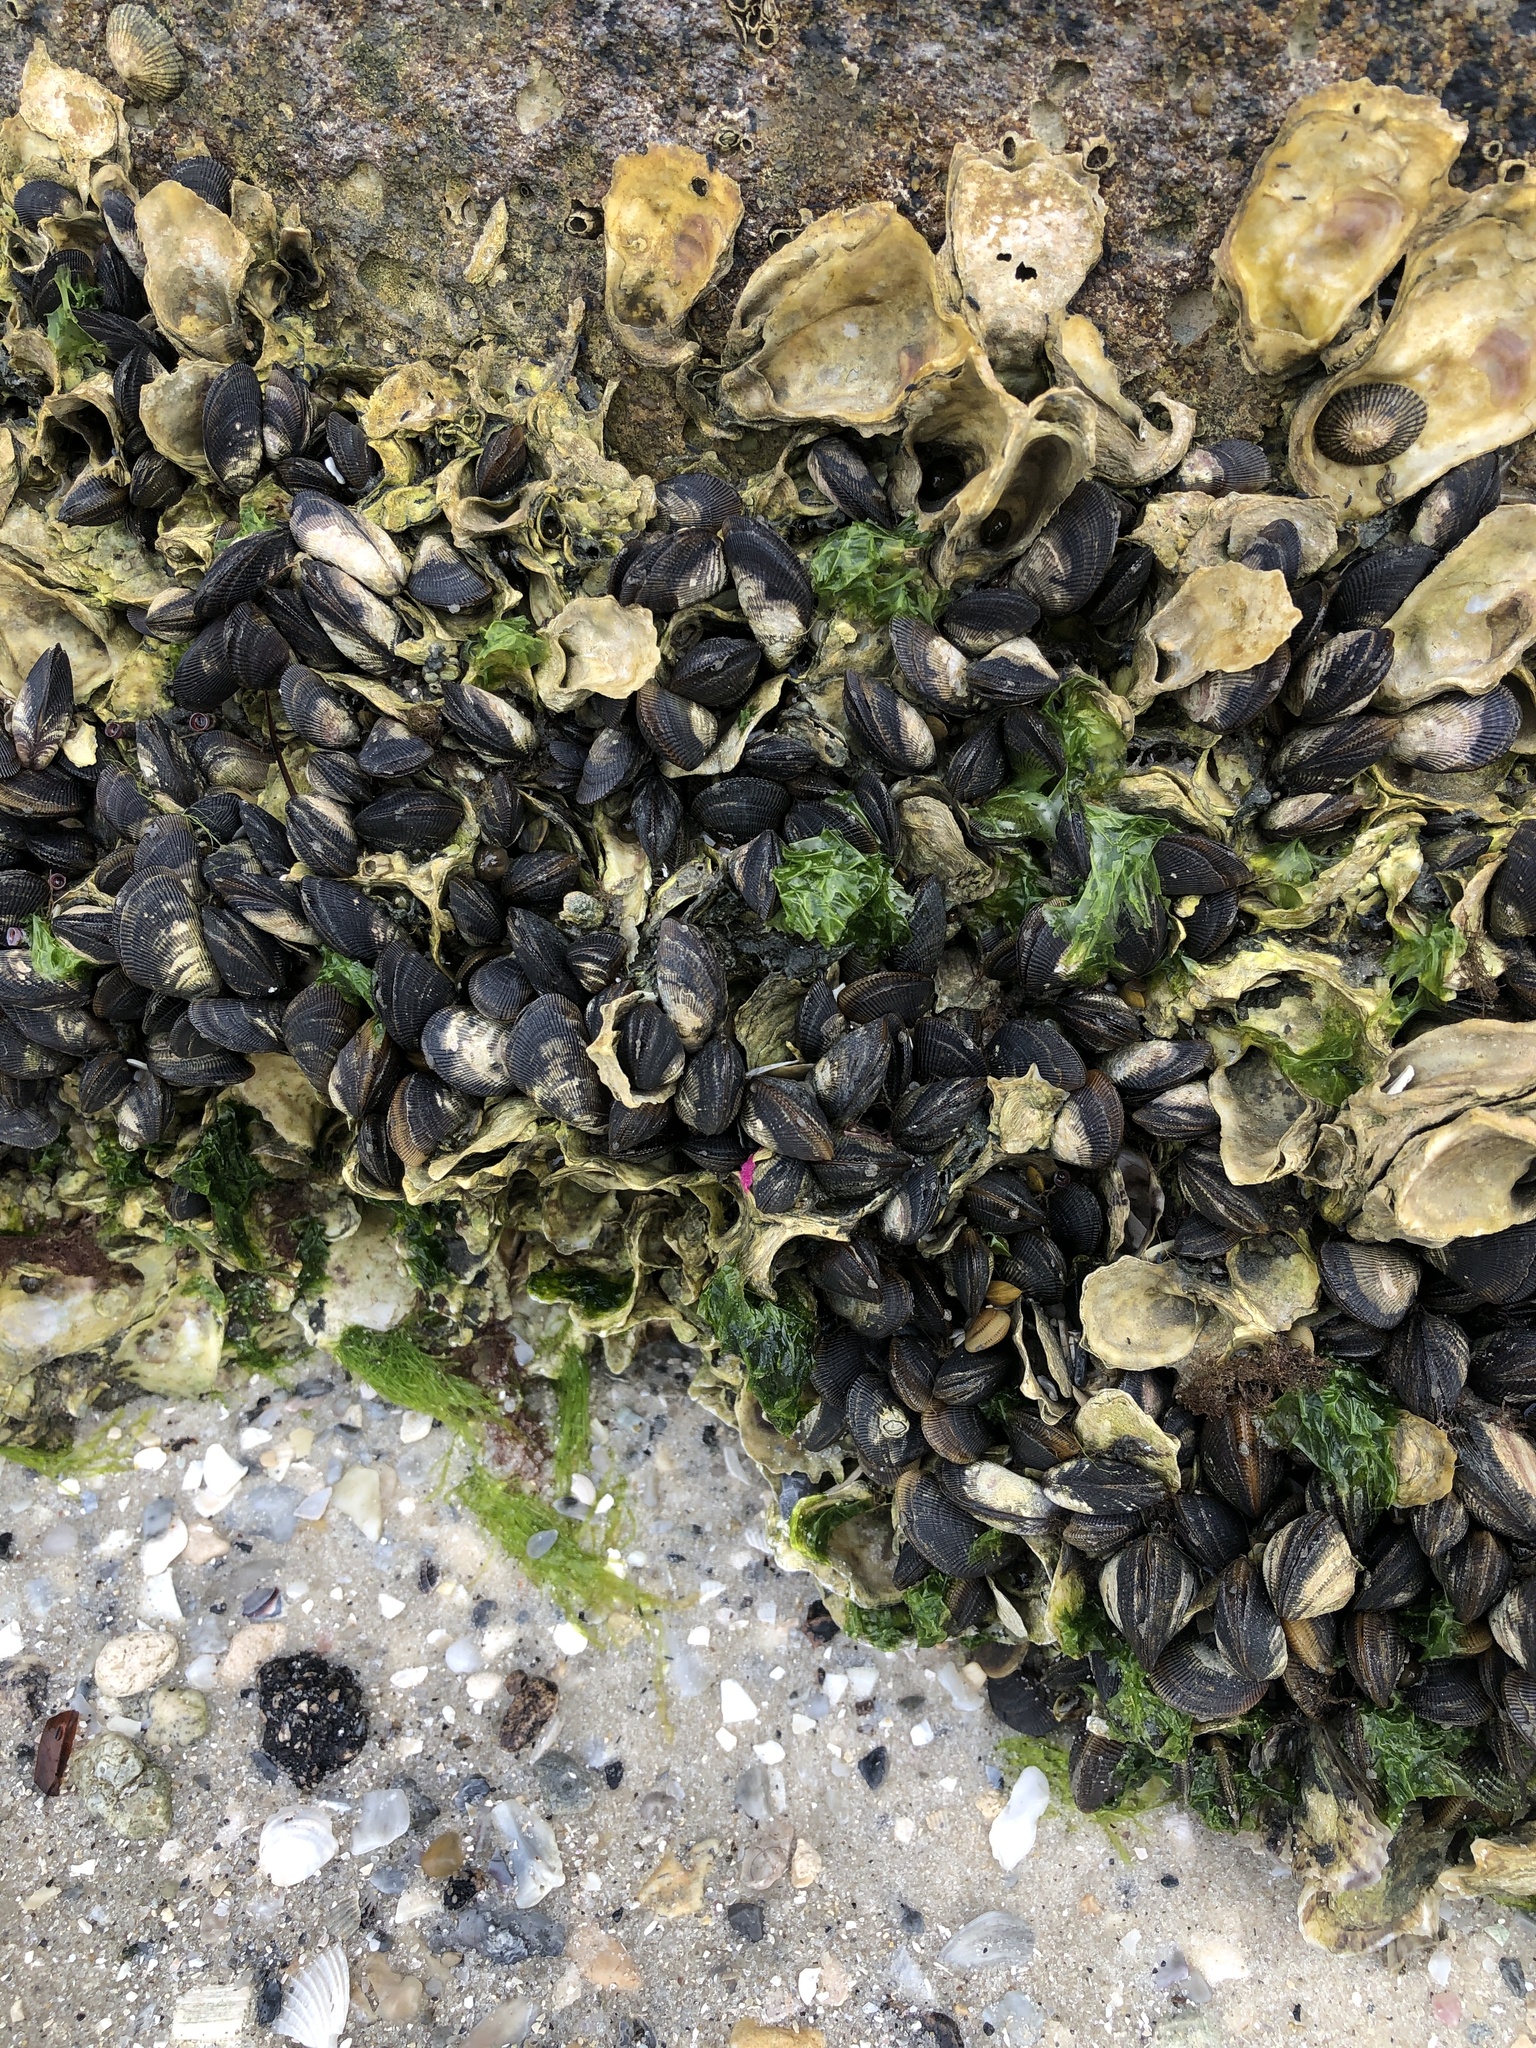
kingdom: Animalia
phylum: Mollusca
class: Bivalvia
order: Mytilida
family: Mytilidae
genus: Geukensia
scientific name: Geukensia demissa
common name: Ribbed mussel
